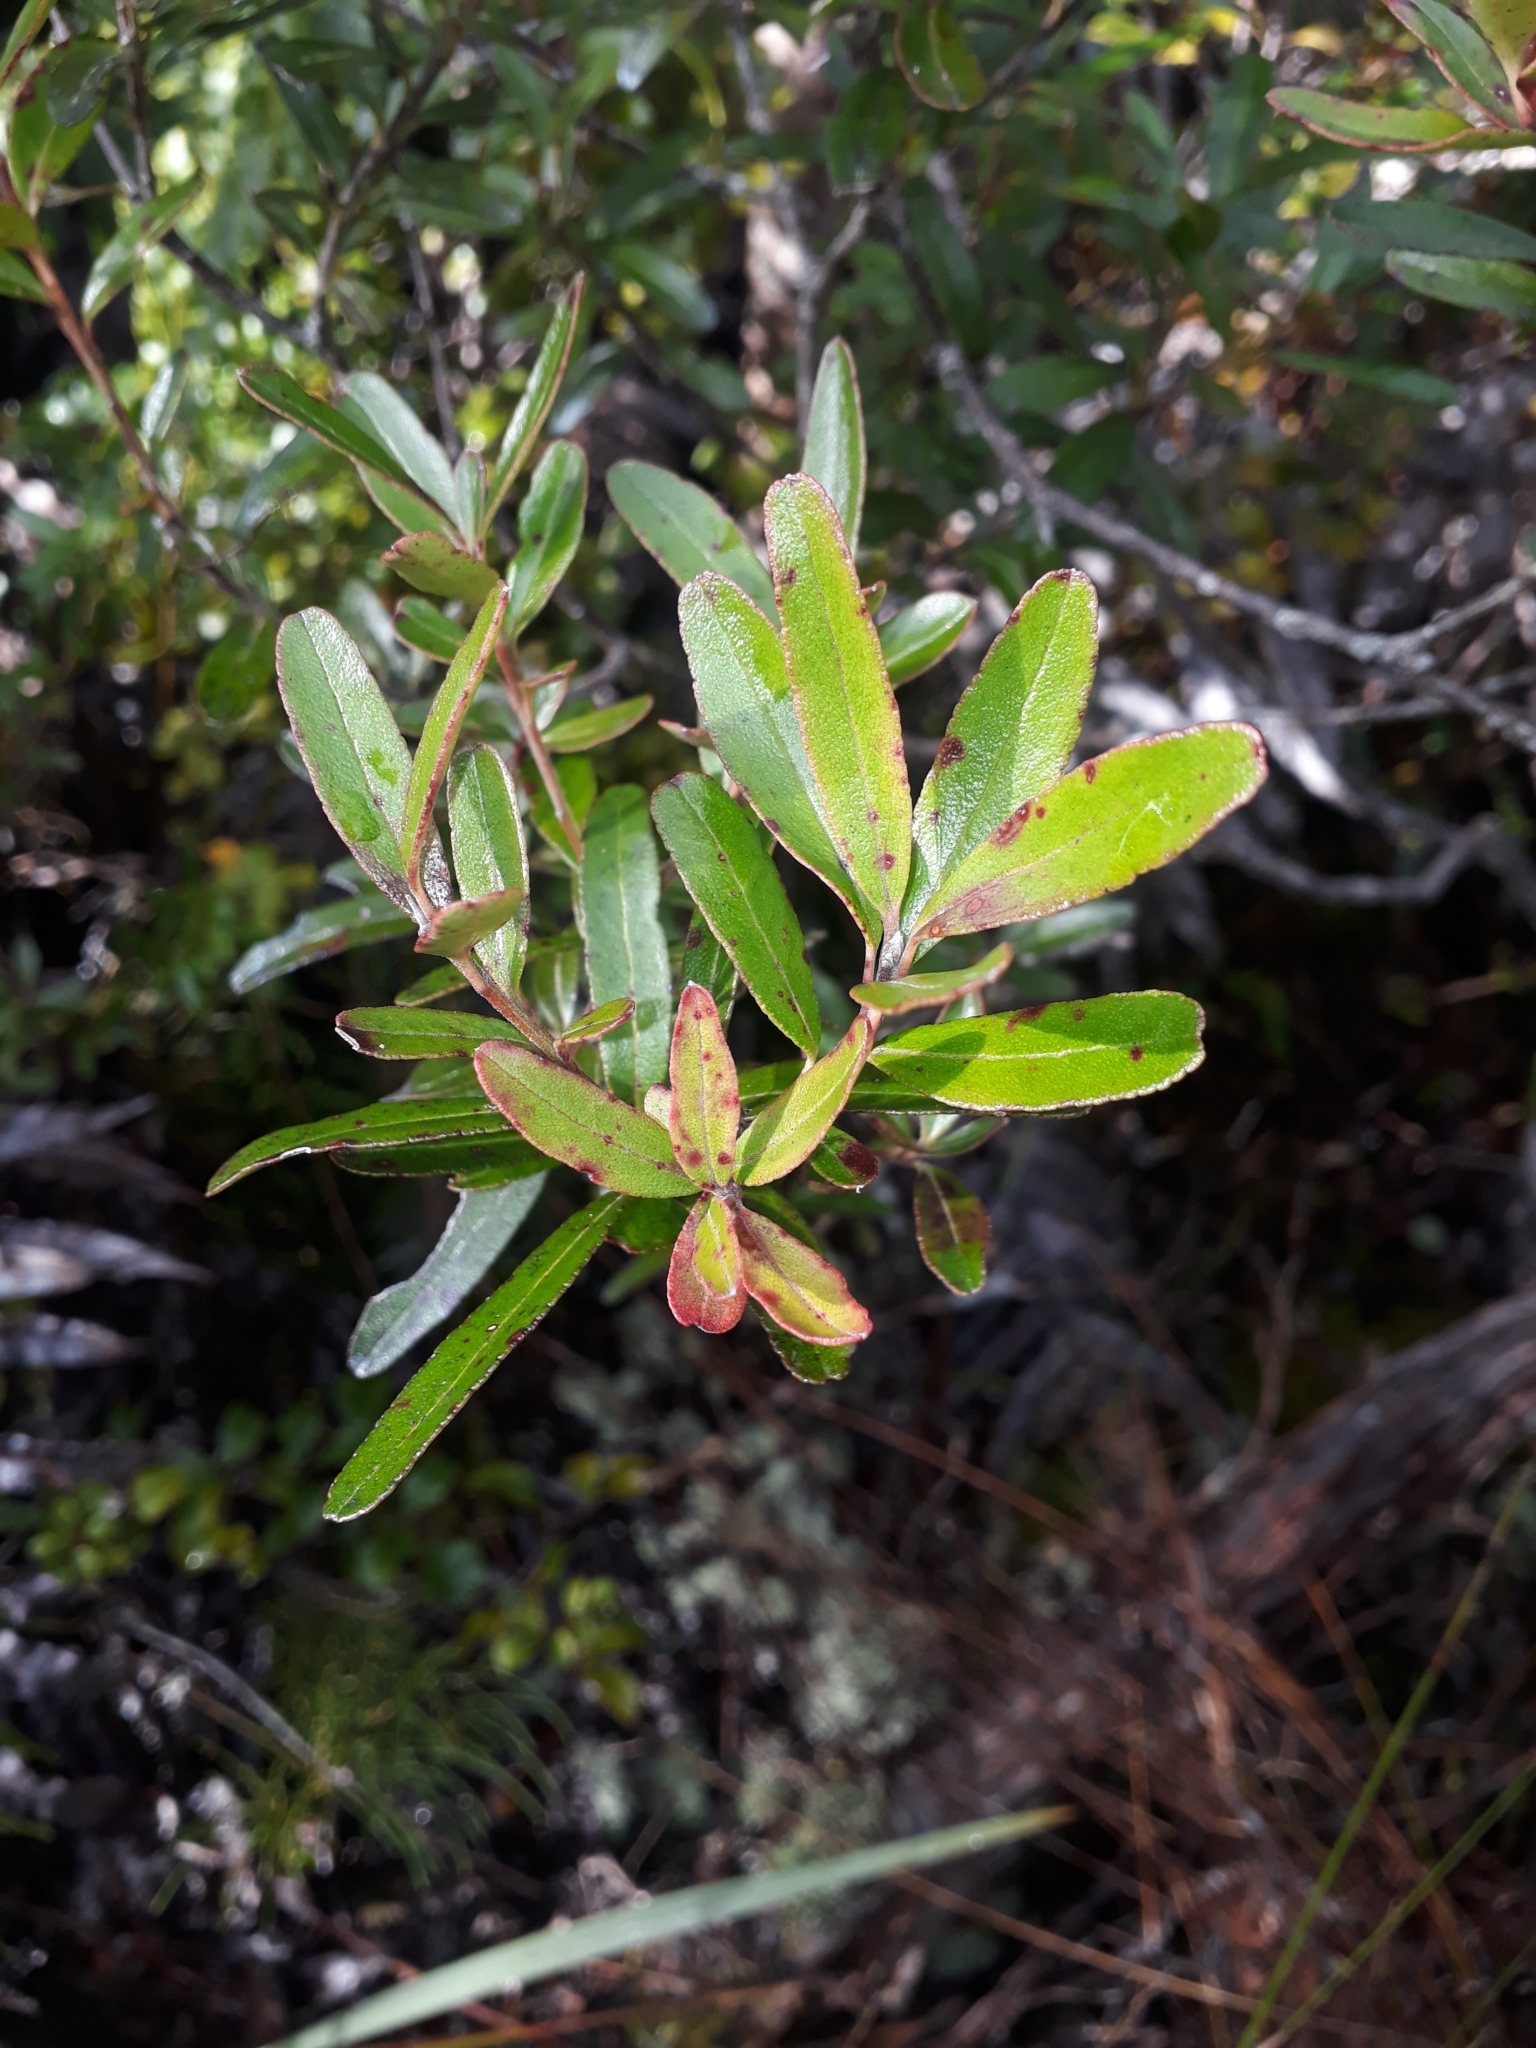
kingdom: Plantae
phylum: Tracheophyta
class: Magnoliopsida
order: Sapindales
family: Rutaceae
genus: Leionema
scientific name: Leionema nudum
